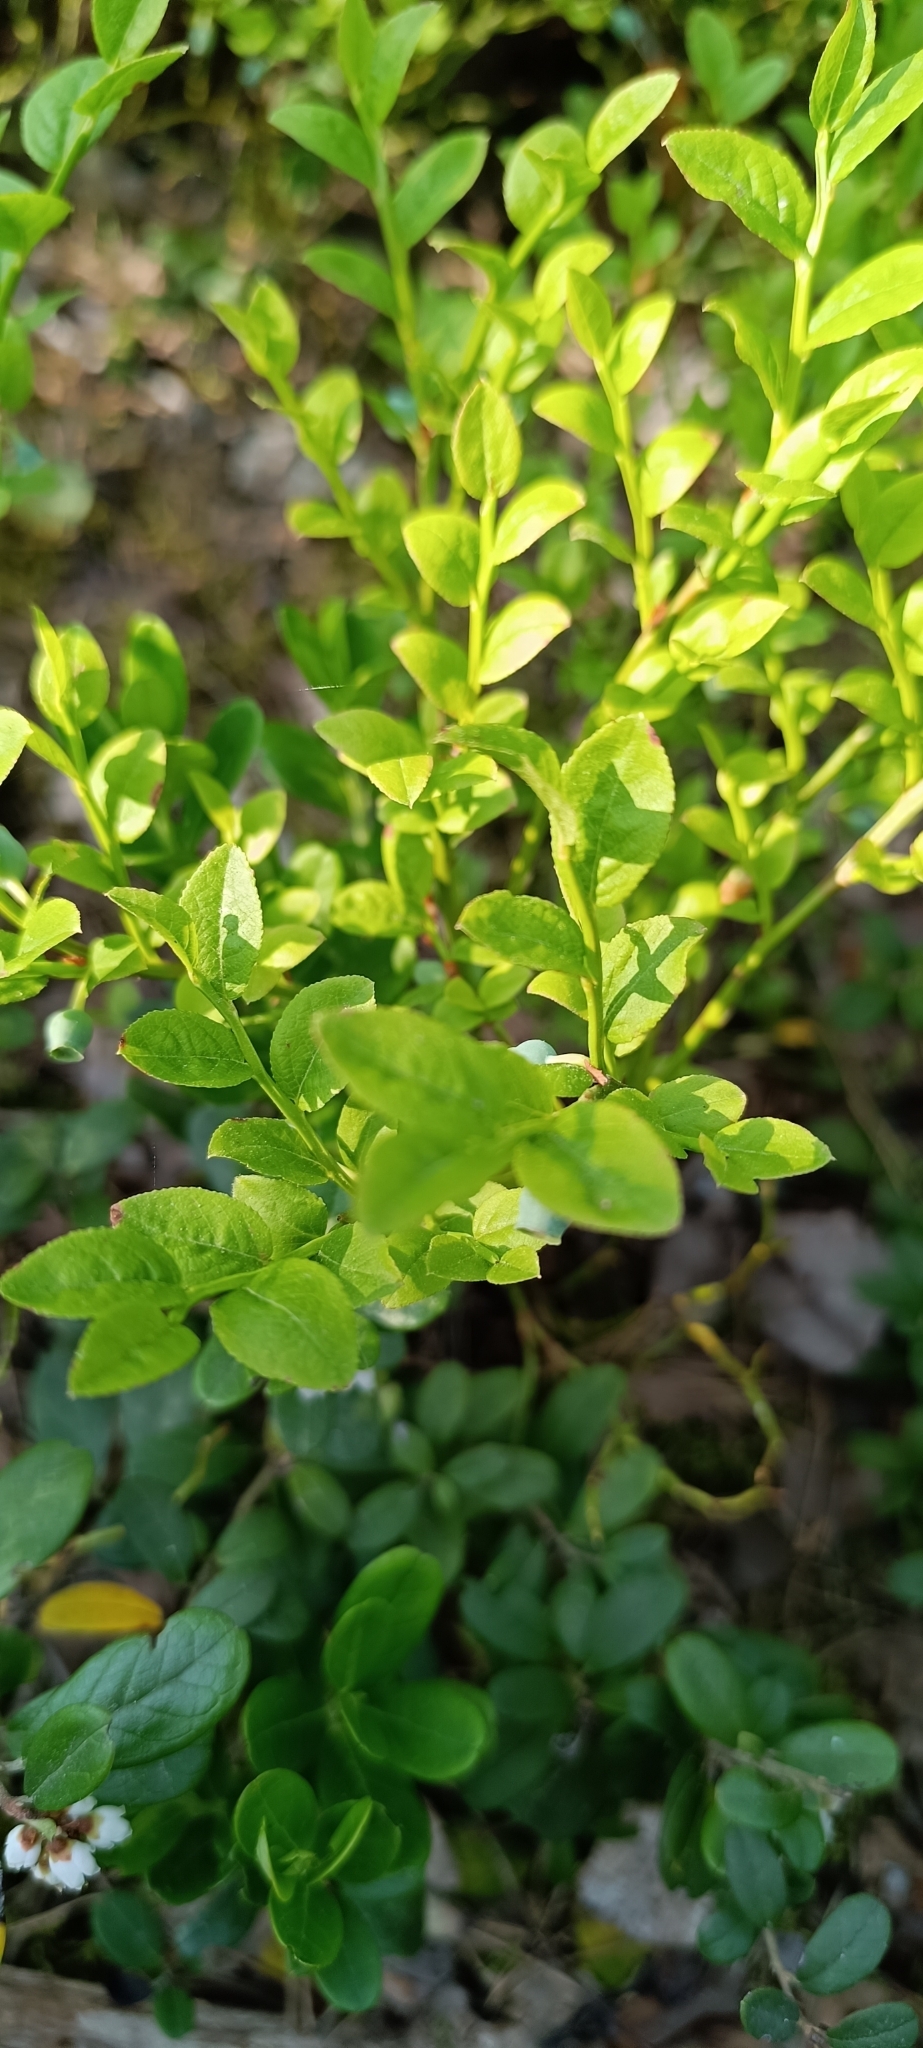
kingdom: Plantae
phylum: Tracheophyta
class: Magnoliopsida
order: Ericales
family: Ericaceae
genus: Vaccinium
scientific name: Vaccinium myrtillus
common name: Bilberry
